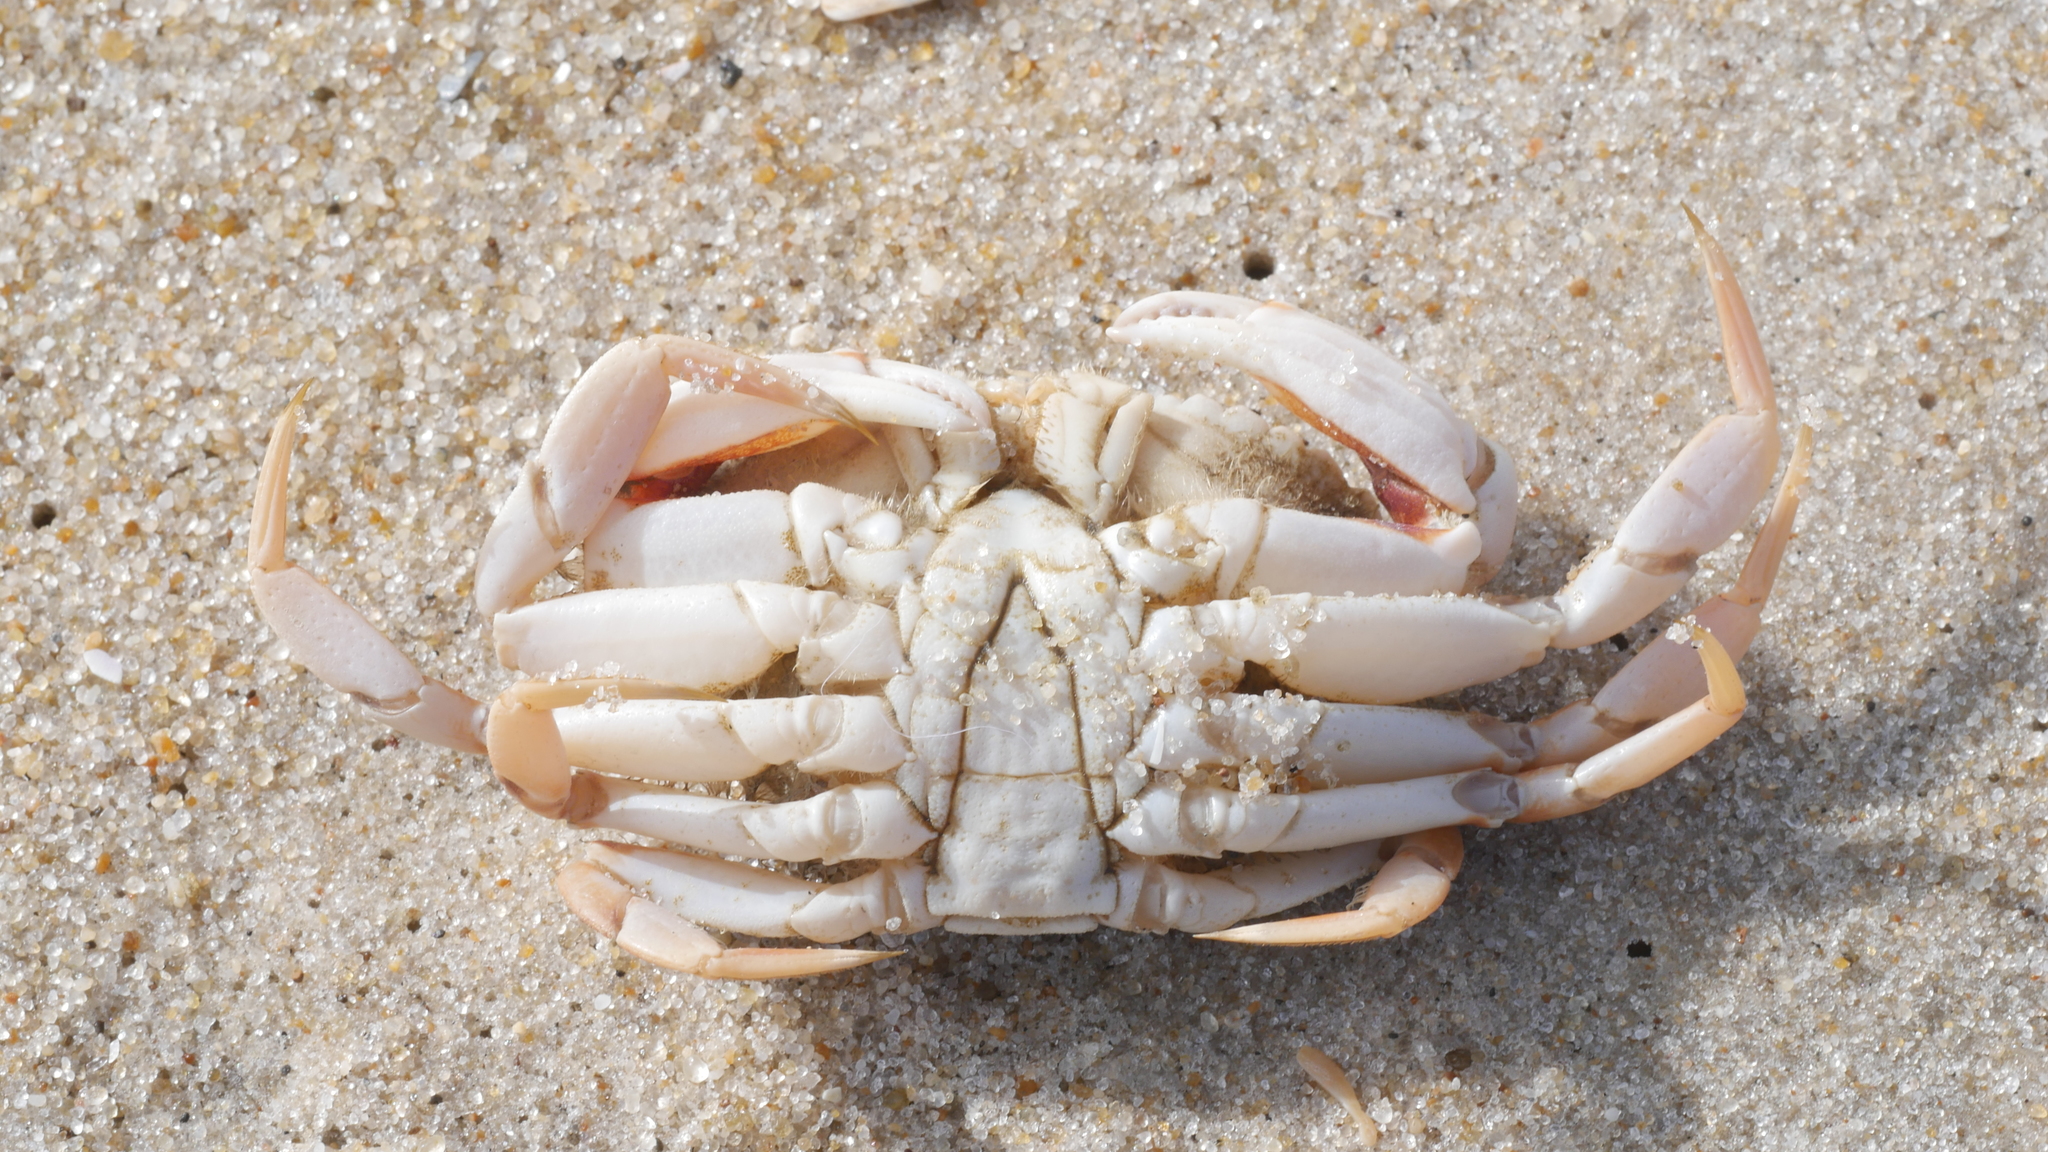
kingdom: Animalia
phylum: Arthropoda
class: Malacostraca
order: Decapoda
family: Cancridae
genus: Cancer
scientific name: Cancer irroratus
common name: Atlantic rock crab
